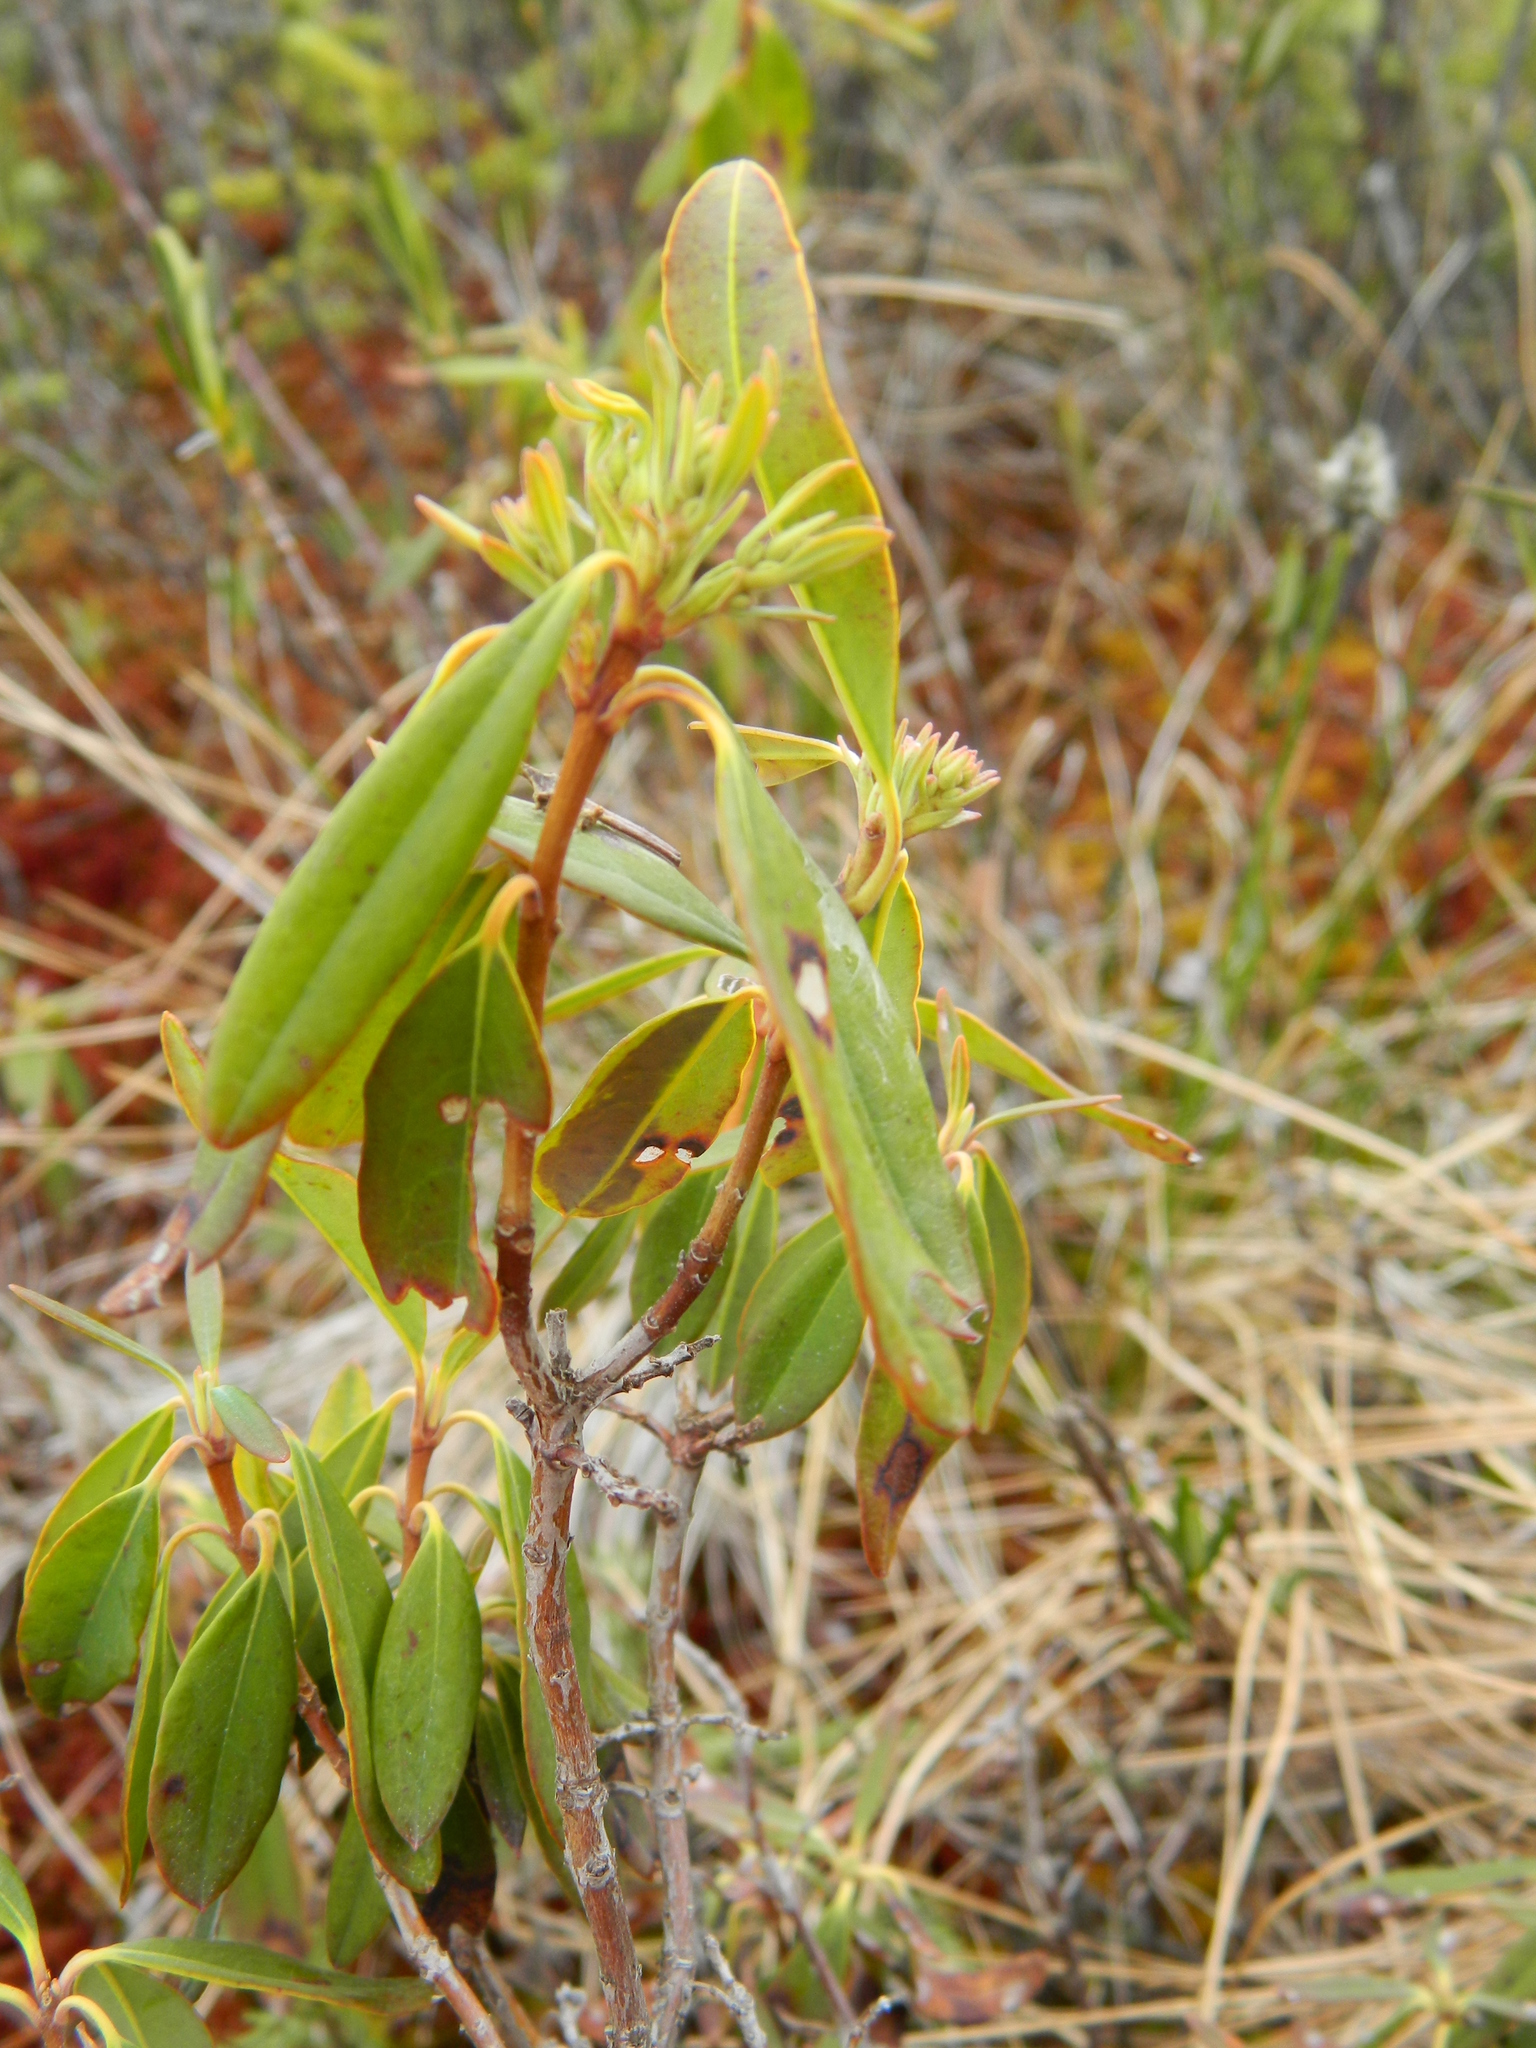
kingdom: Plantae
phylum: Tracheophyta
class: Magnoliopsida
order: Ericales
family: Ericaceae
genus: Kalmia
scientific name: Kalmia angustifolia
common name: Sheep-laurel
